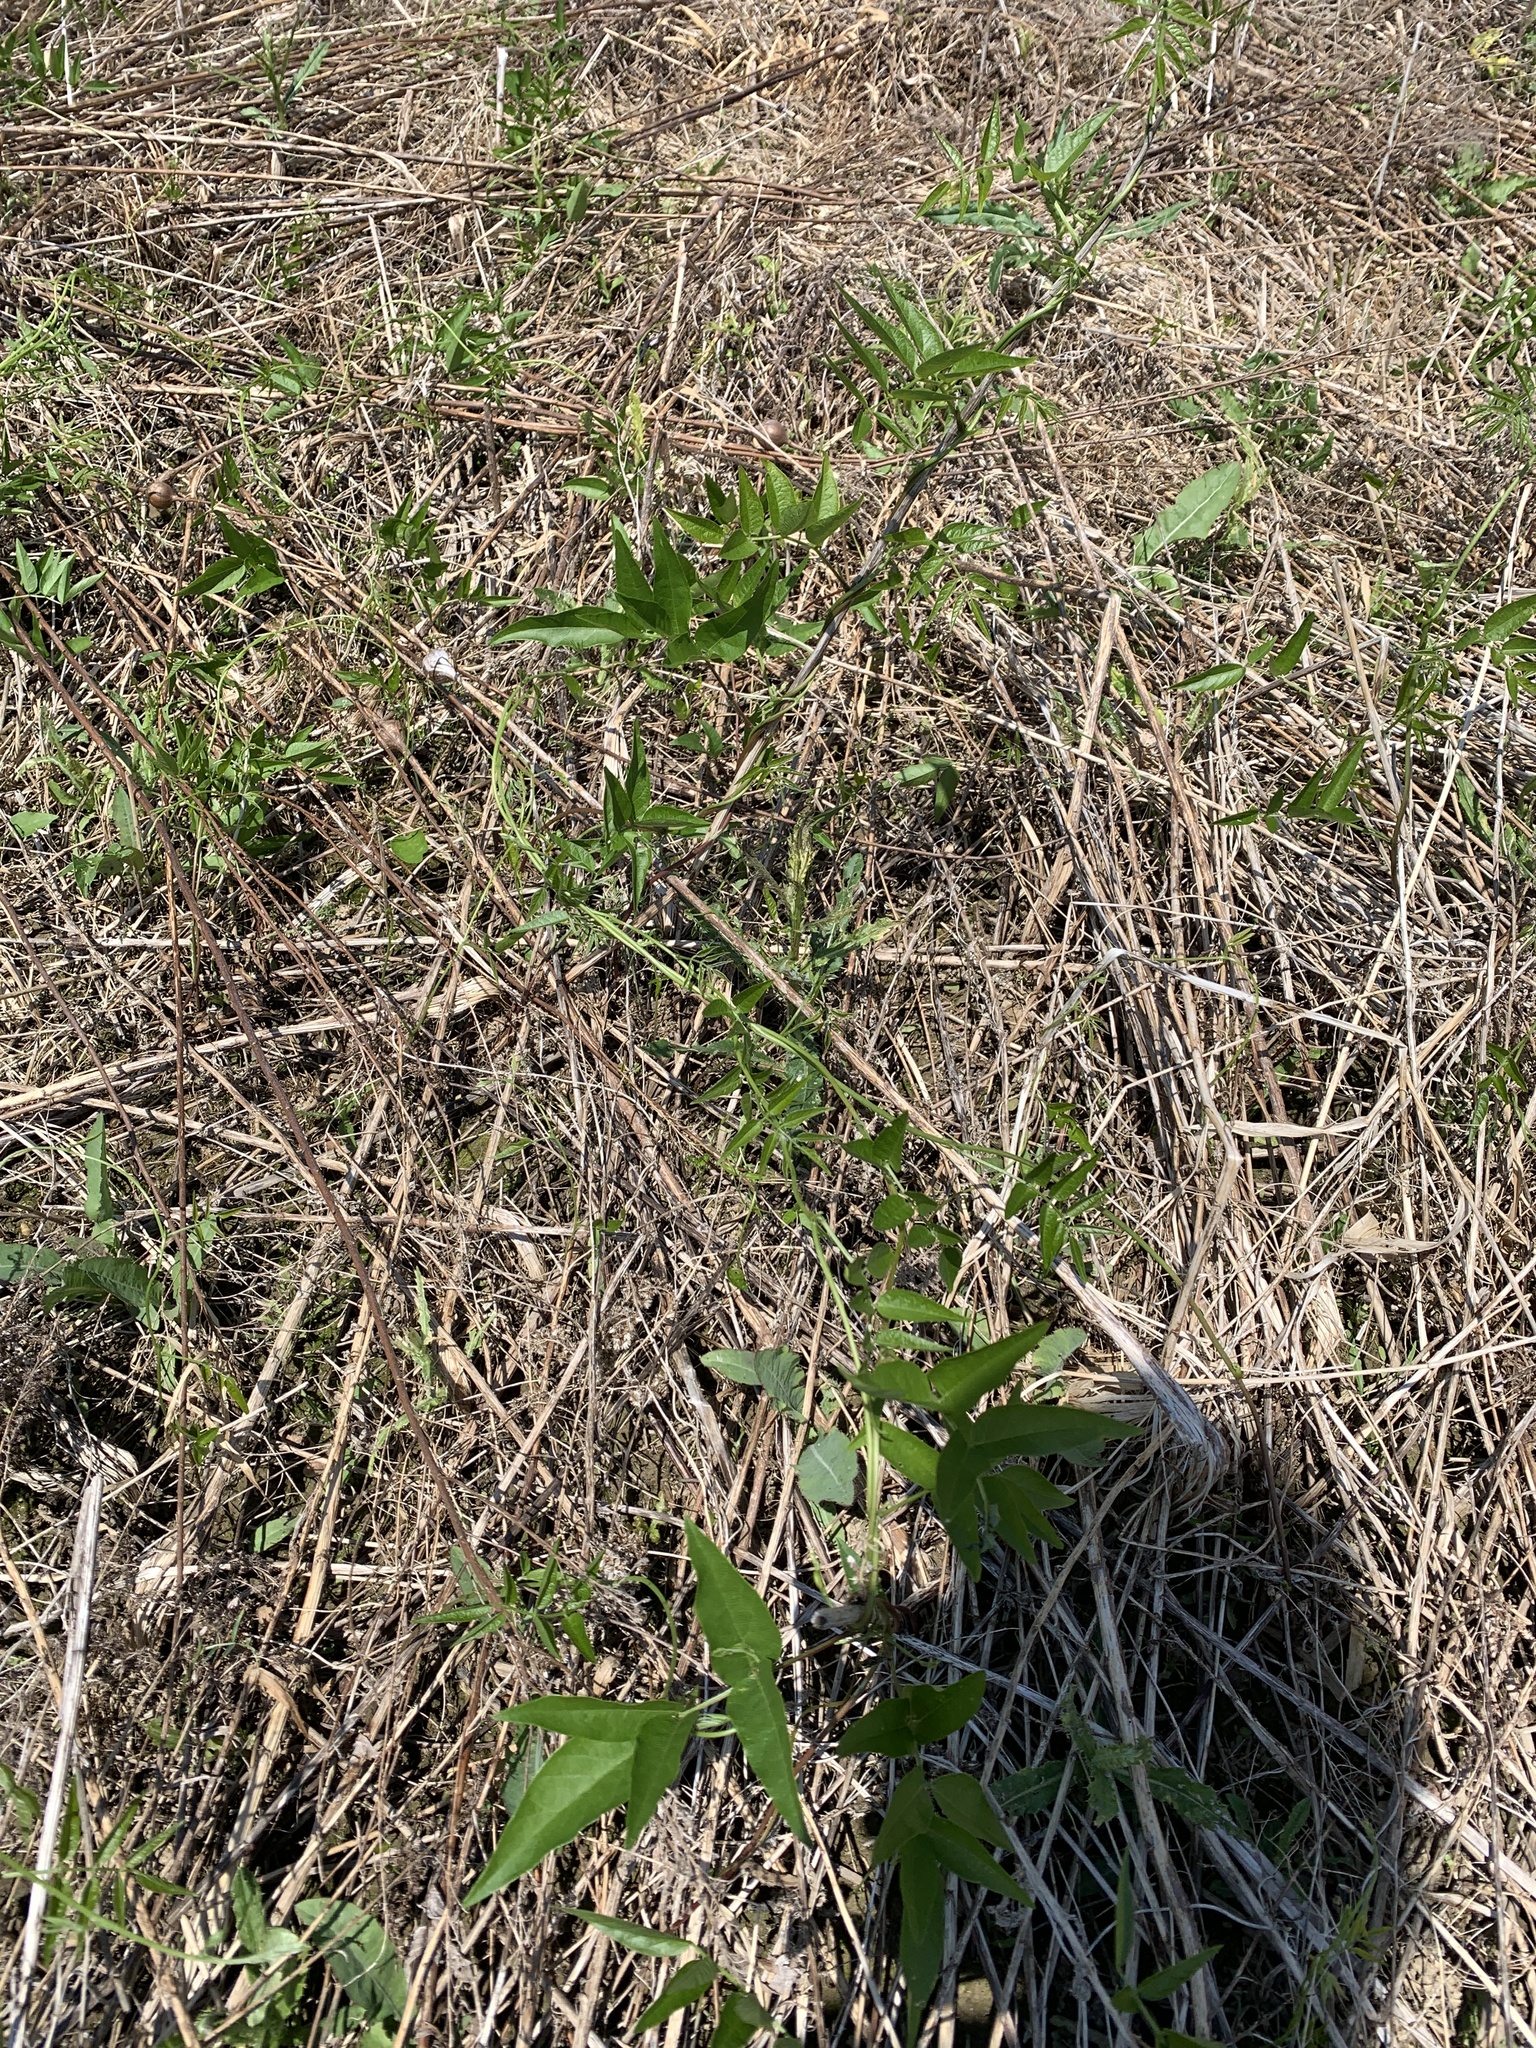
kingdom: Plantae
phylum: Tracheophyta
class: Magnoliopsida
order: Fabales
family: Fabaceae
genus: Apios
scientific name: Apios americana
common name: American potato-bean
